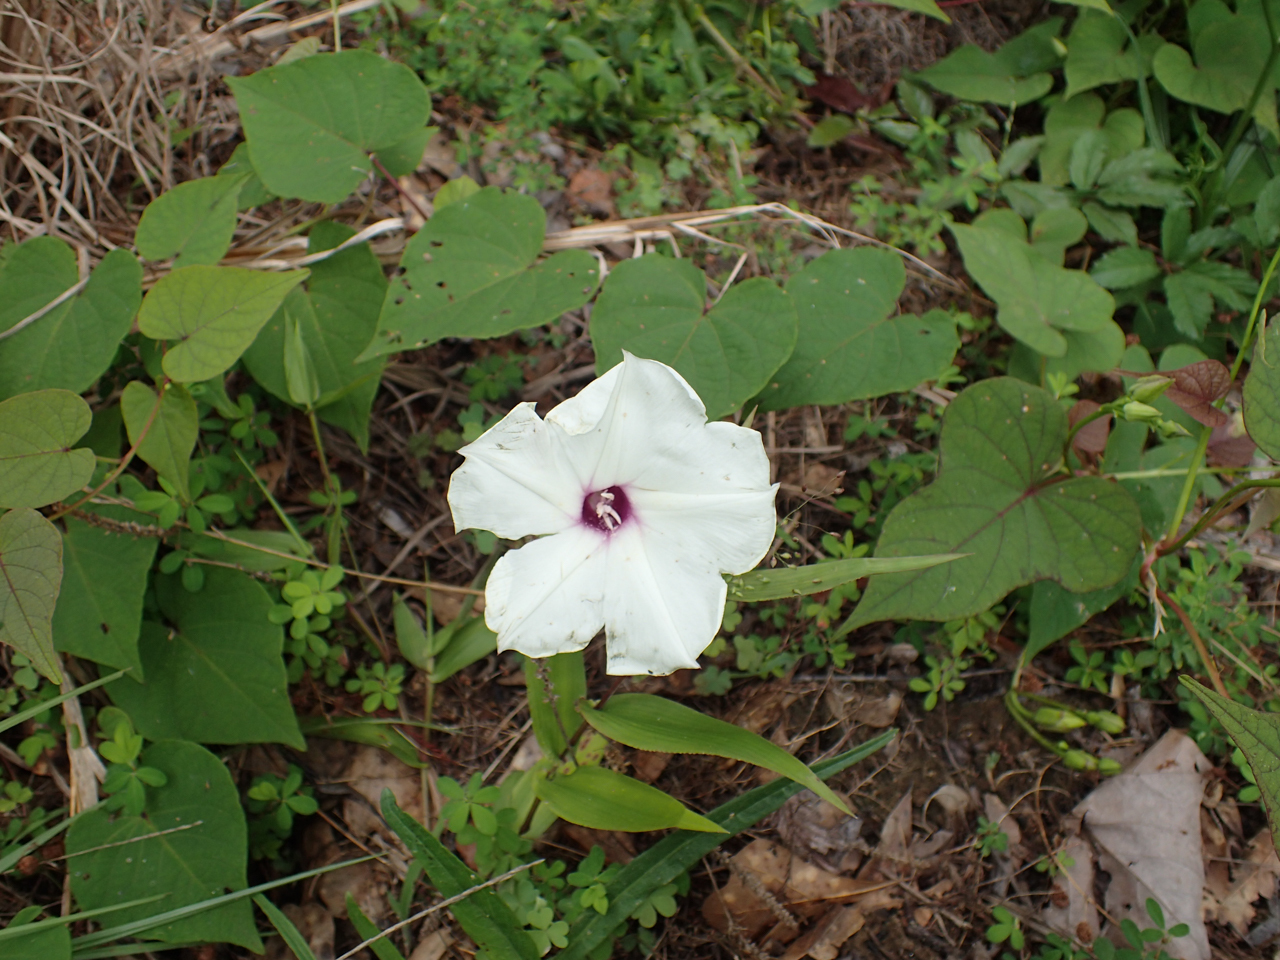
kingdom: Plantae
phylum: Tracheophyta
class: Magnoliopsida
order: Solanales
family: Convolvulaceae
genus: Ipomoea
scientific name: Ipomoea pandurata
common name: Man-of-the-earth
